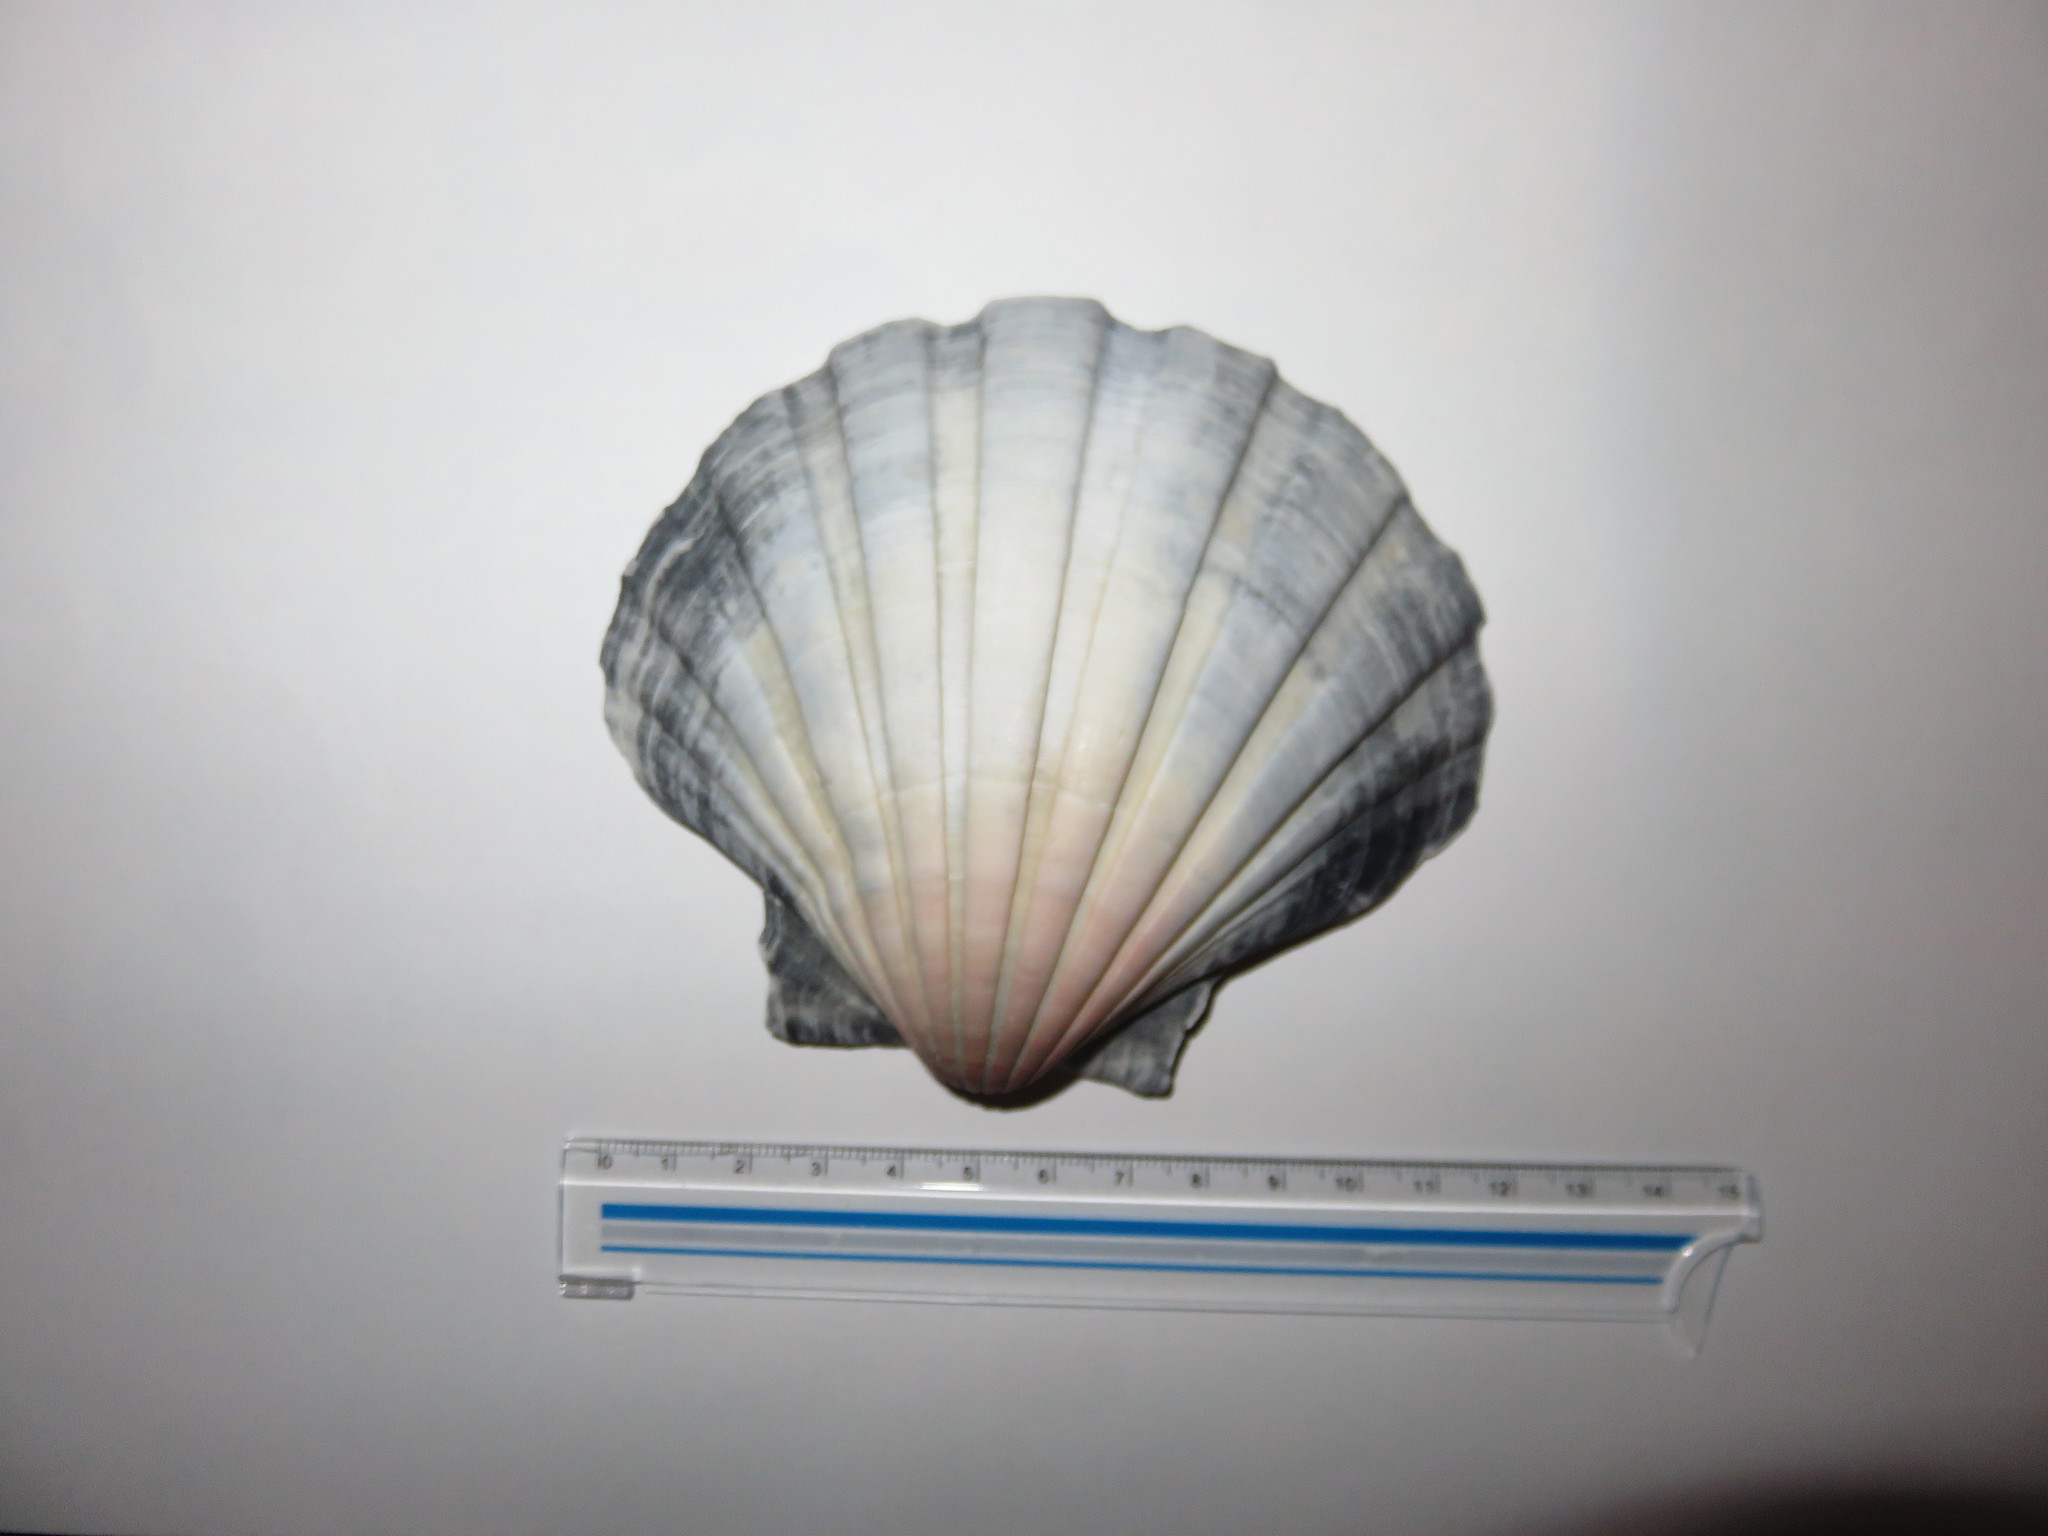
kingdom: Animalia
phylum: Mollusca
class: Bivalvia
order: Pectinida
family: Pectinidae
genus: Pecten
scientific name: Pecten albicans
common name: Japanese baking scallop
